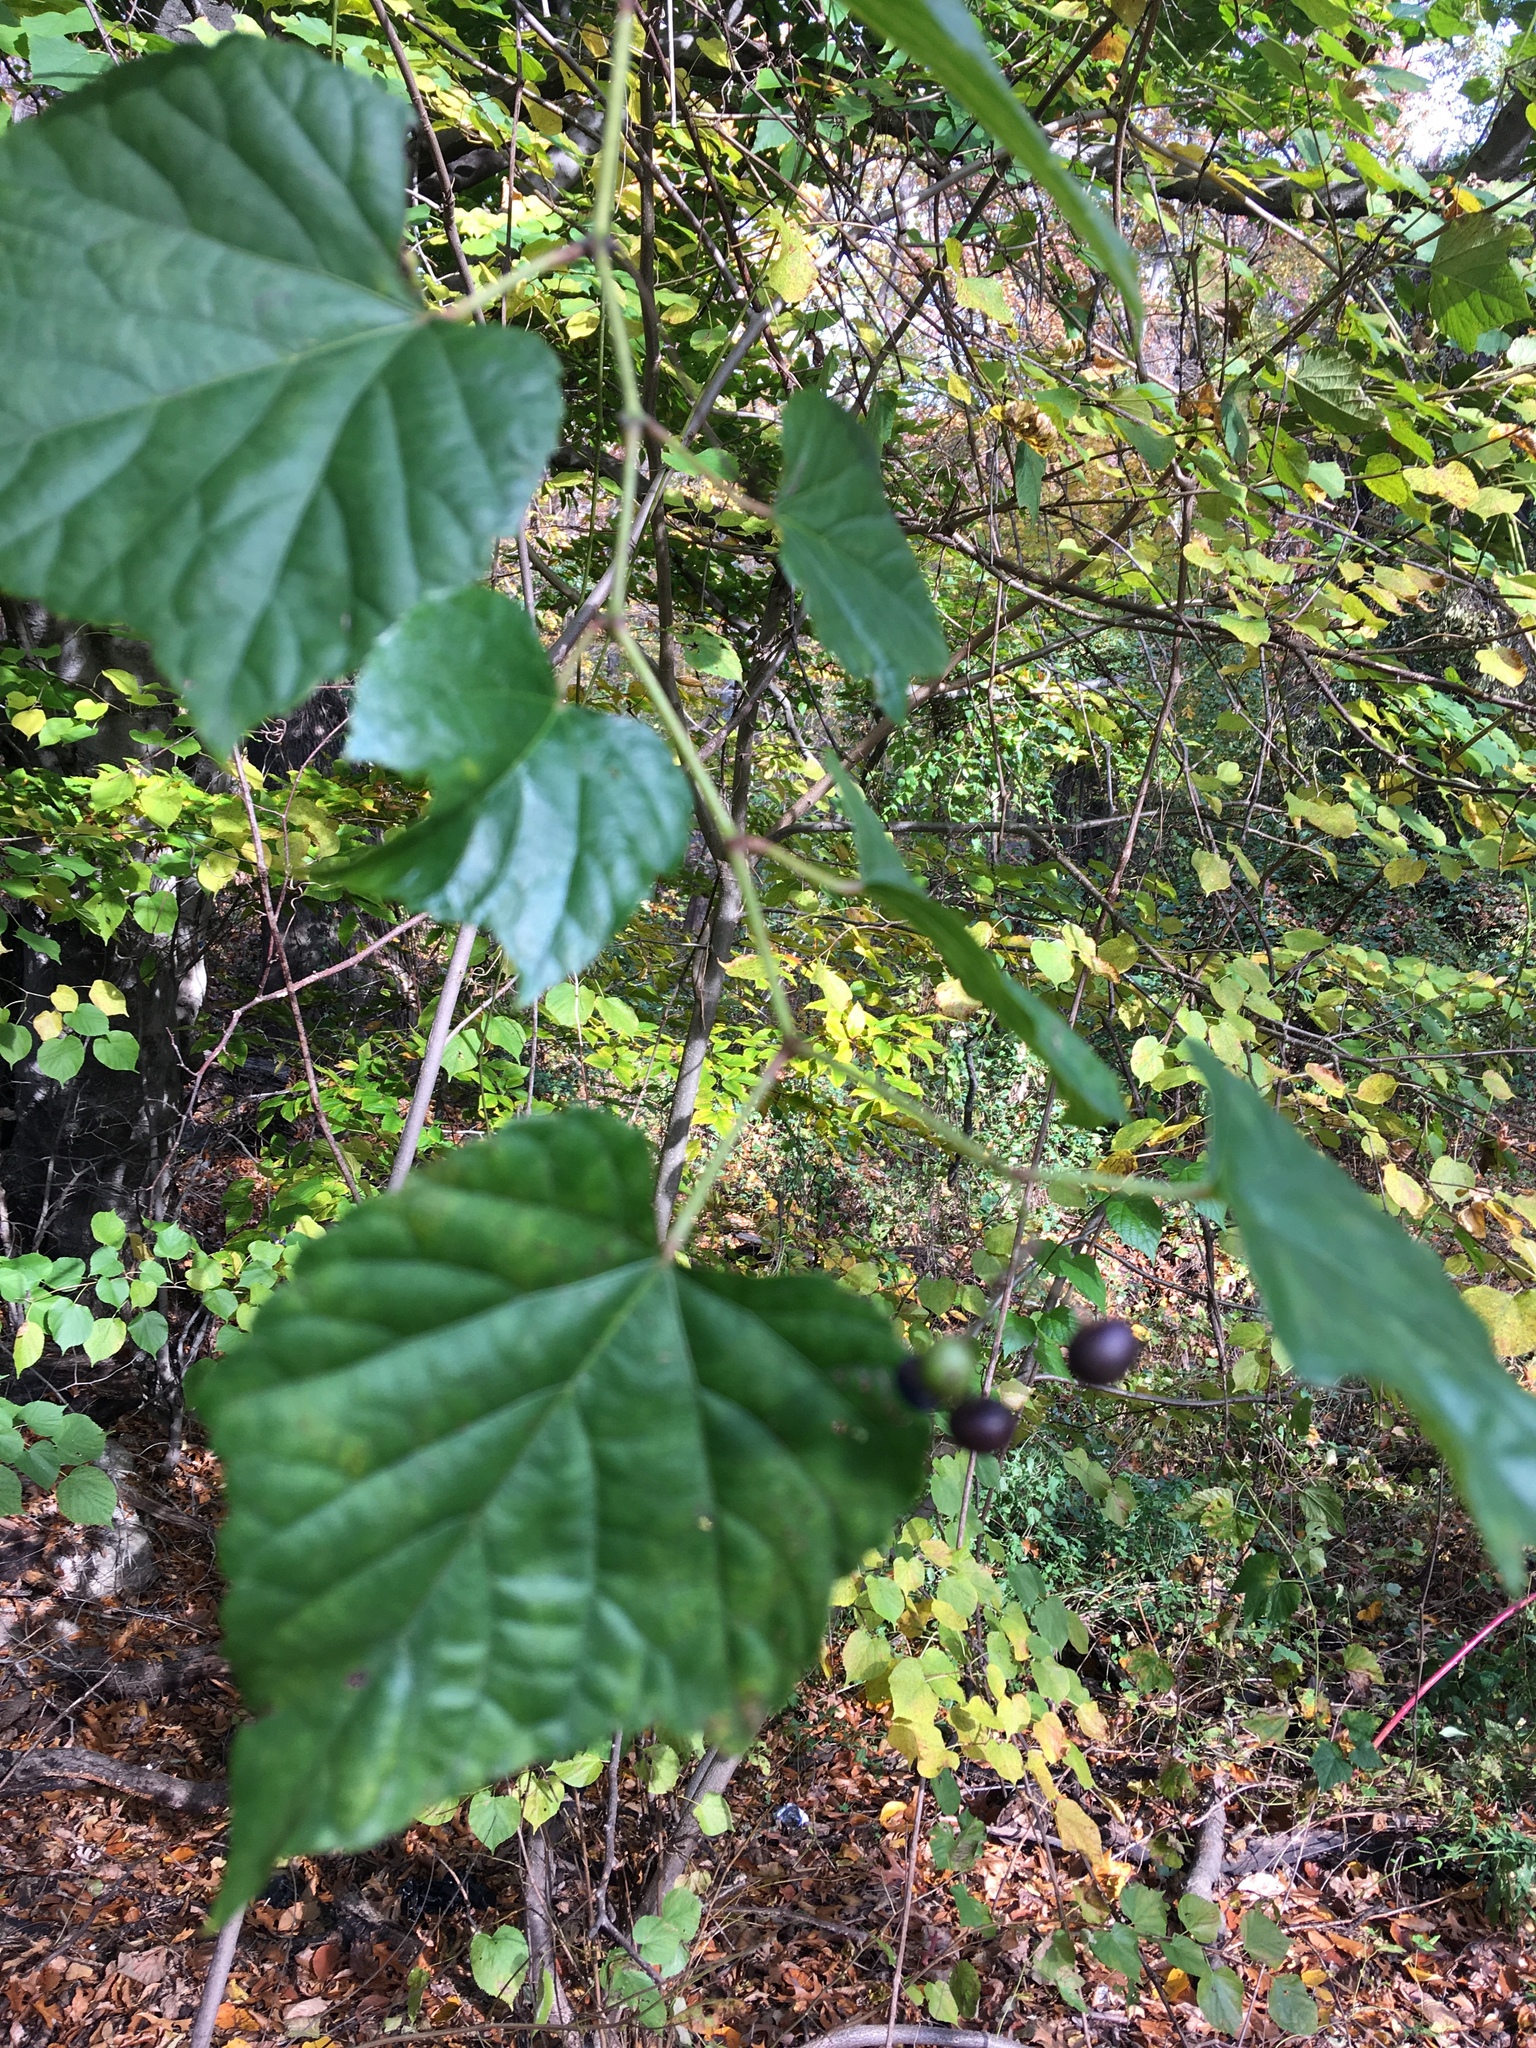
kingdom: Plantae
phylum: Tracheophyta
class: Magnoliopsida
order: Vitales
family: Vitaceae
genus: Ampelopsis
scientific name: Ampelopsis glandulosa
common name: Amur peppervine
